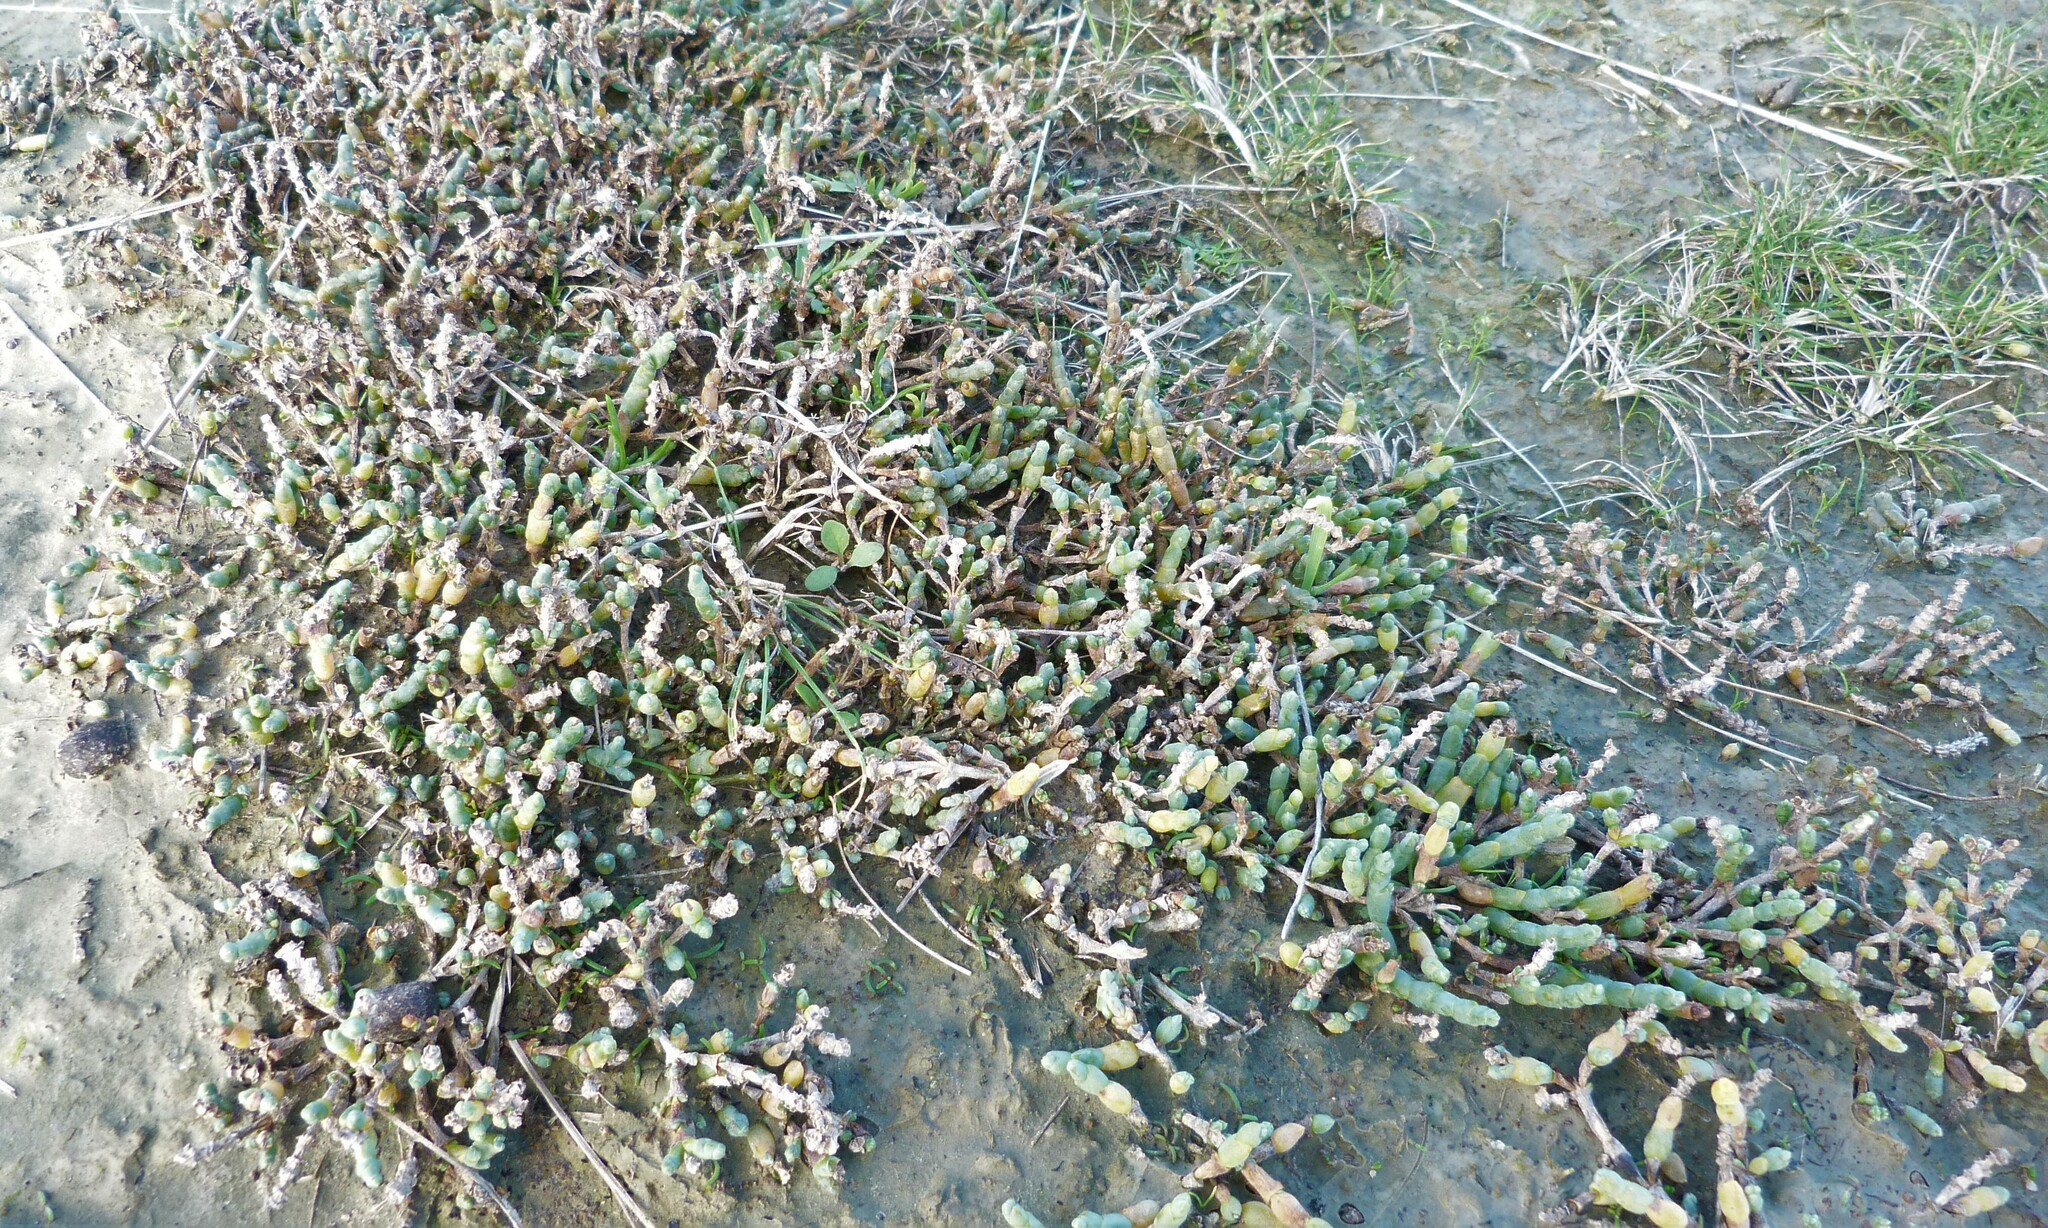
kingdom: Plantae
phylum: Tracheophyta
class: Magnoliopsida
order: Caryophyllales
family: Amaranthaceae
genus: Salicornia
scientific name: Salicornia quinqueflora
